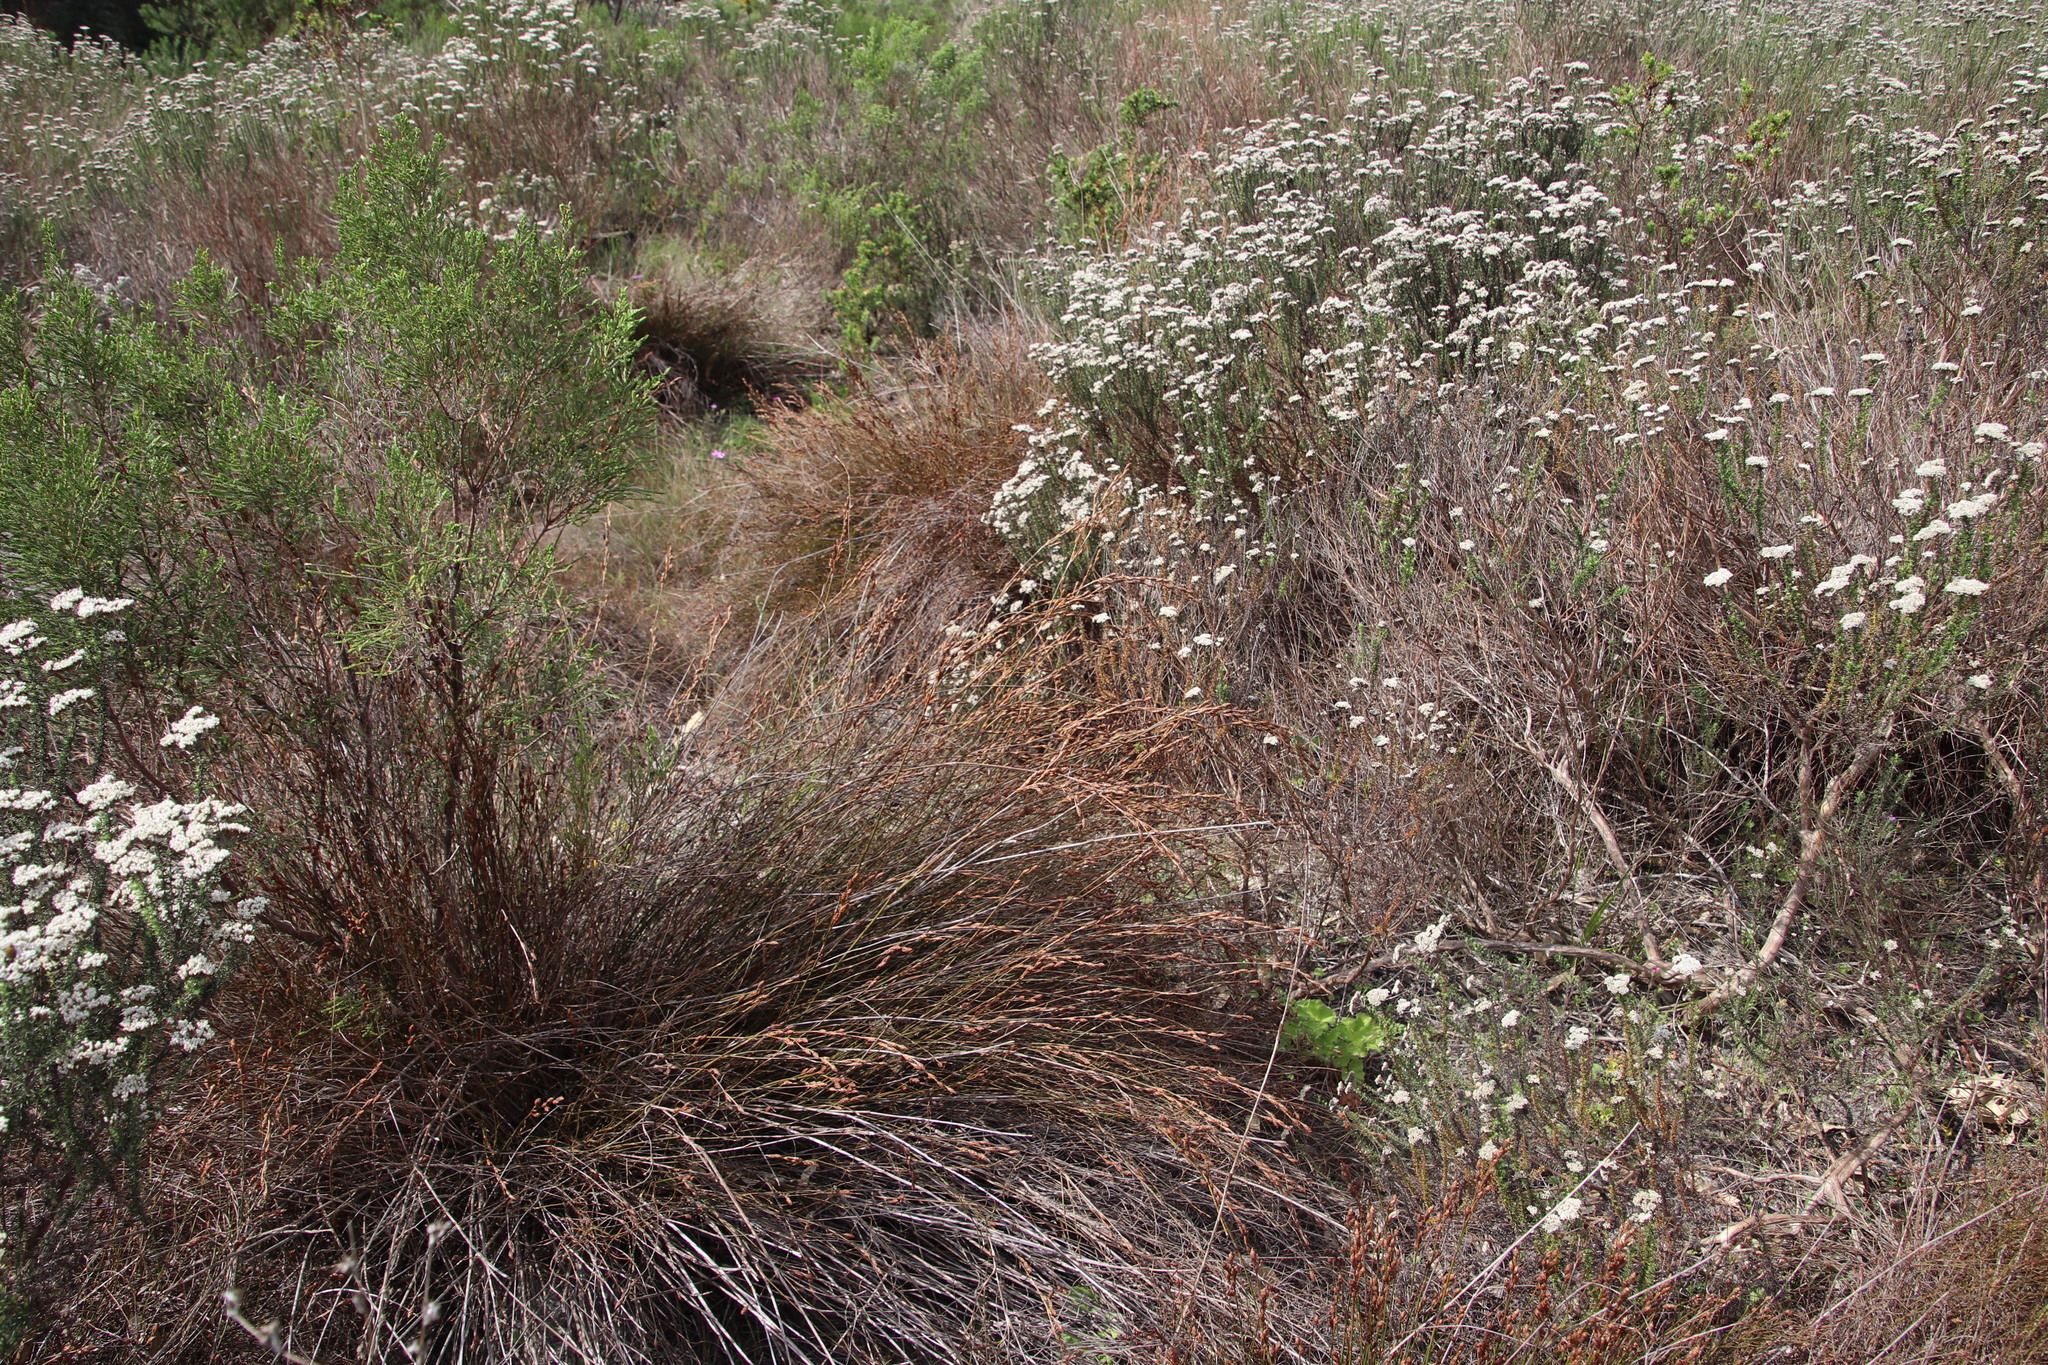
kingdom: Plantae
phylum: Tracheophyta
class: Liliopsida
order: Poales
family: Restionaceae
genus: Restio
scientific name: Restio bifurcus
